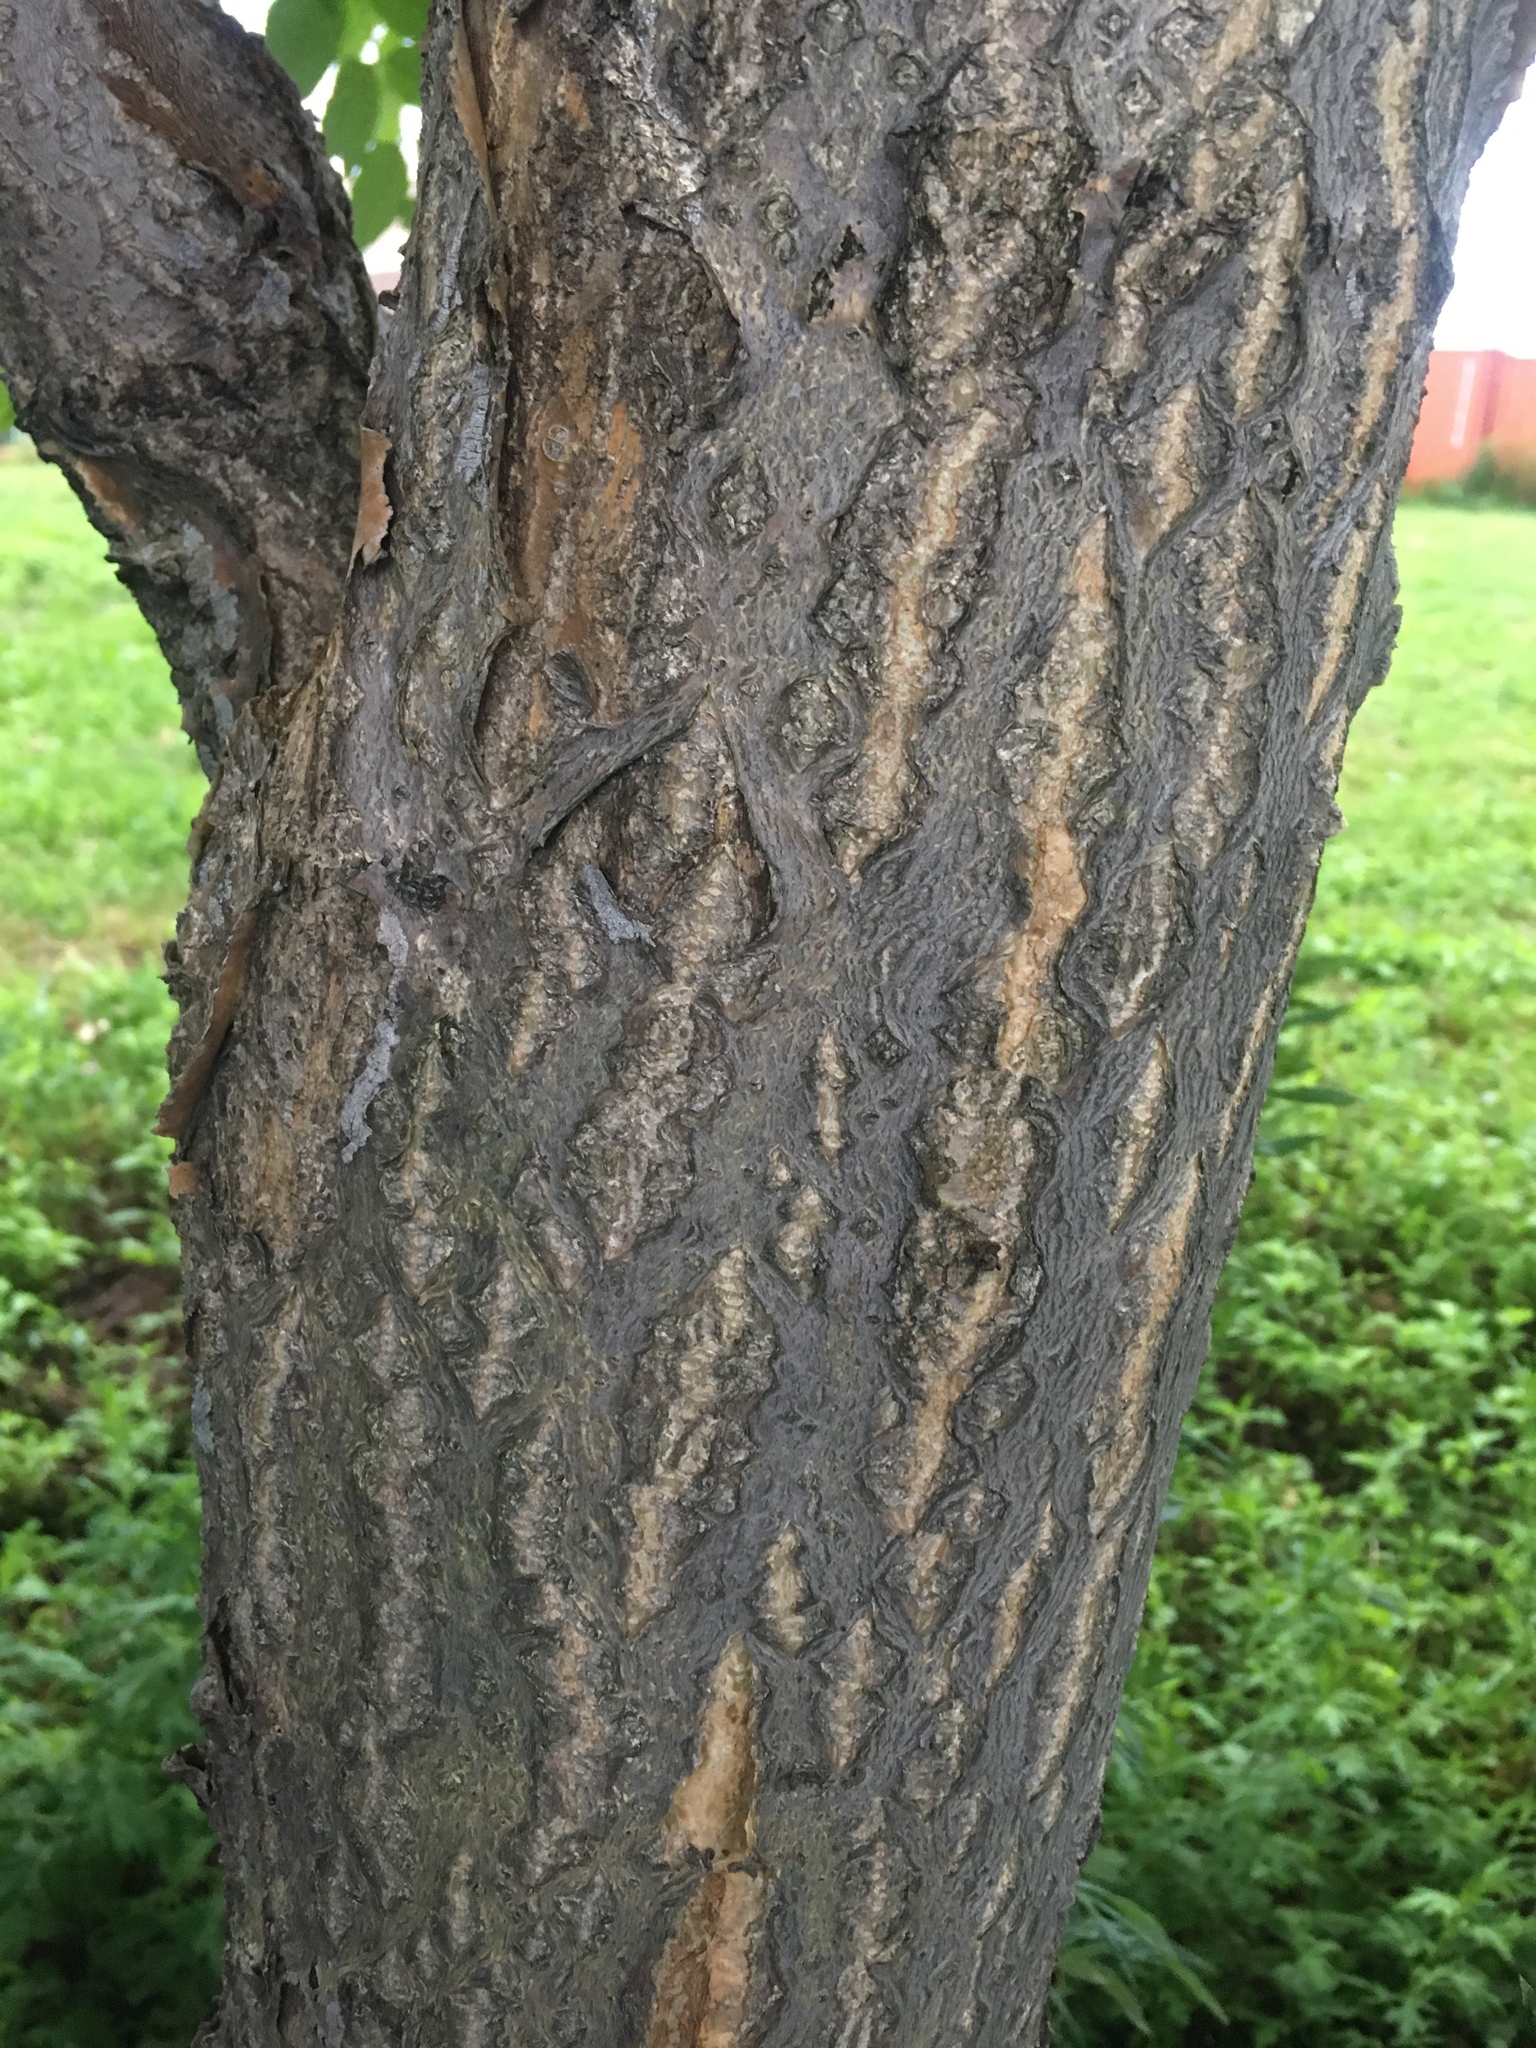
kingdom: Plantae
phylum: Tracheophyta
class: Magnoliopsida
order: Sapindales
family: Simaroubaceae
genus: Ailanthus
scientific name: Ailanthus altissima
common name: Tree-of-heaven
